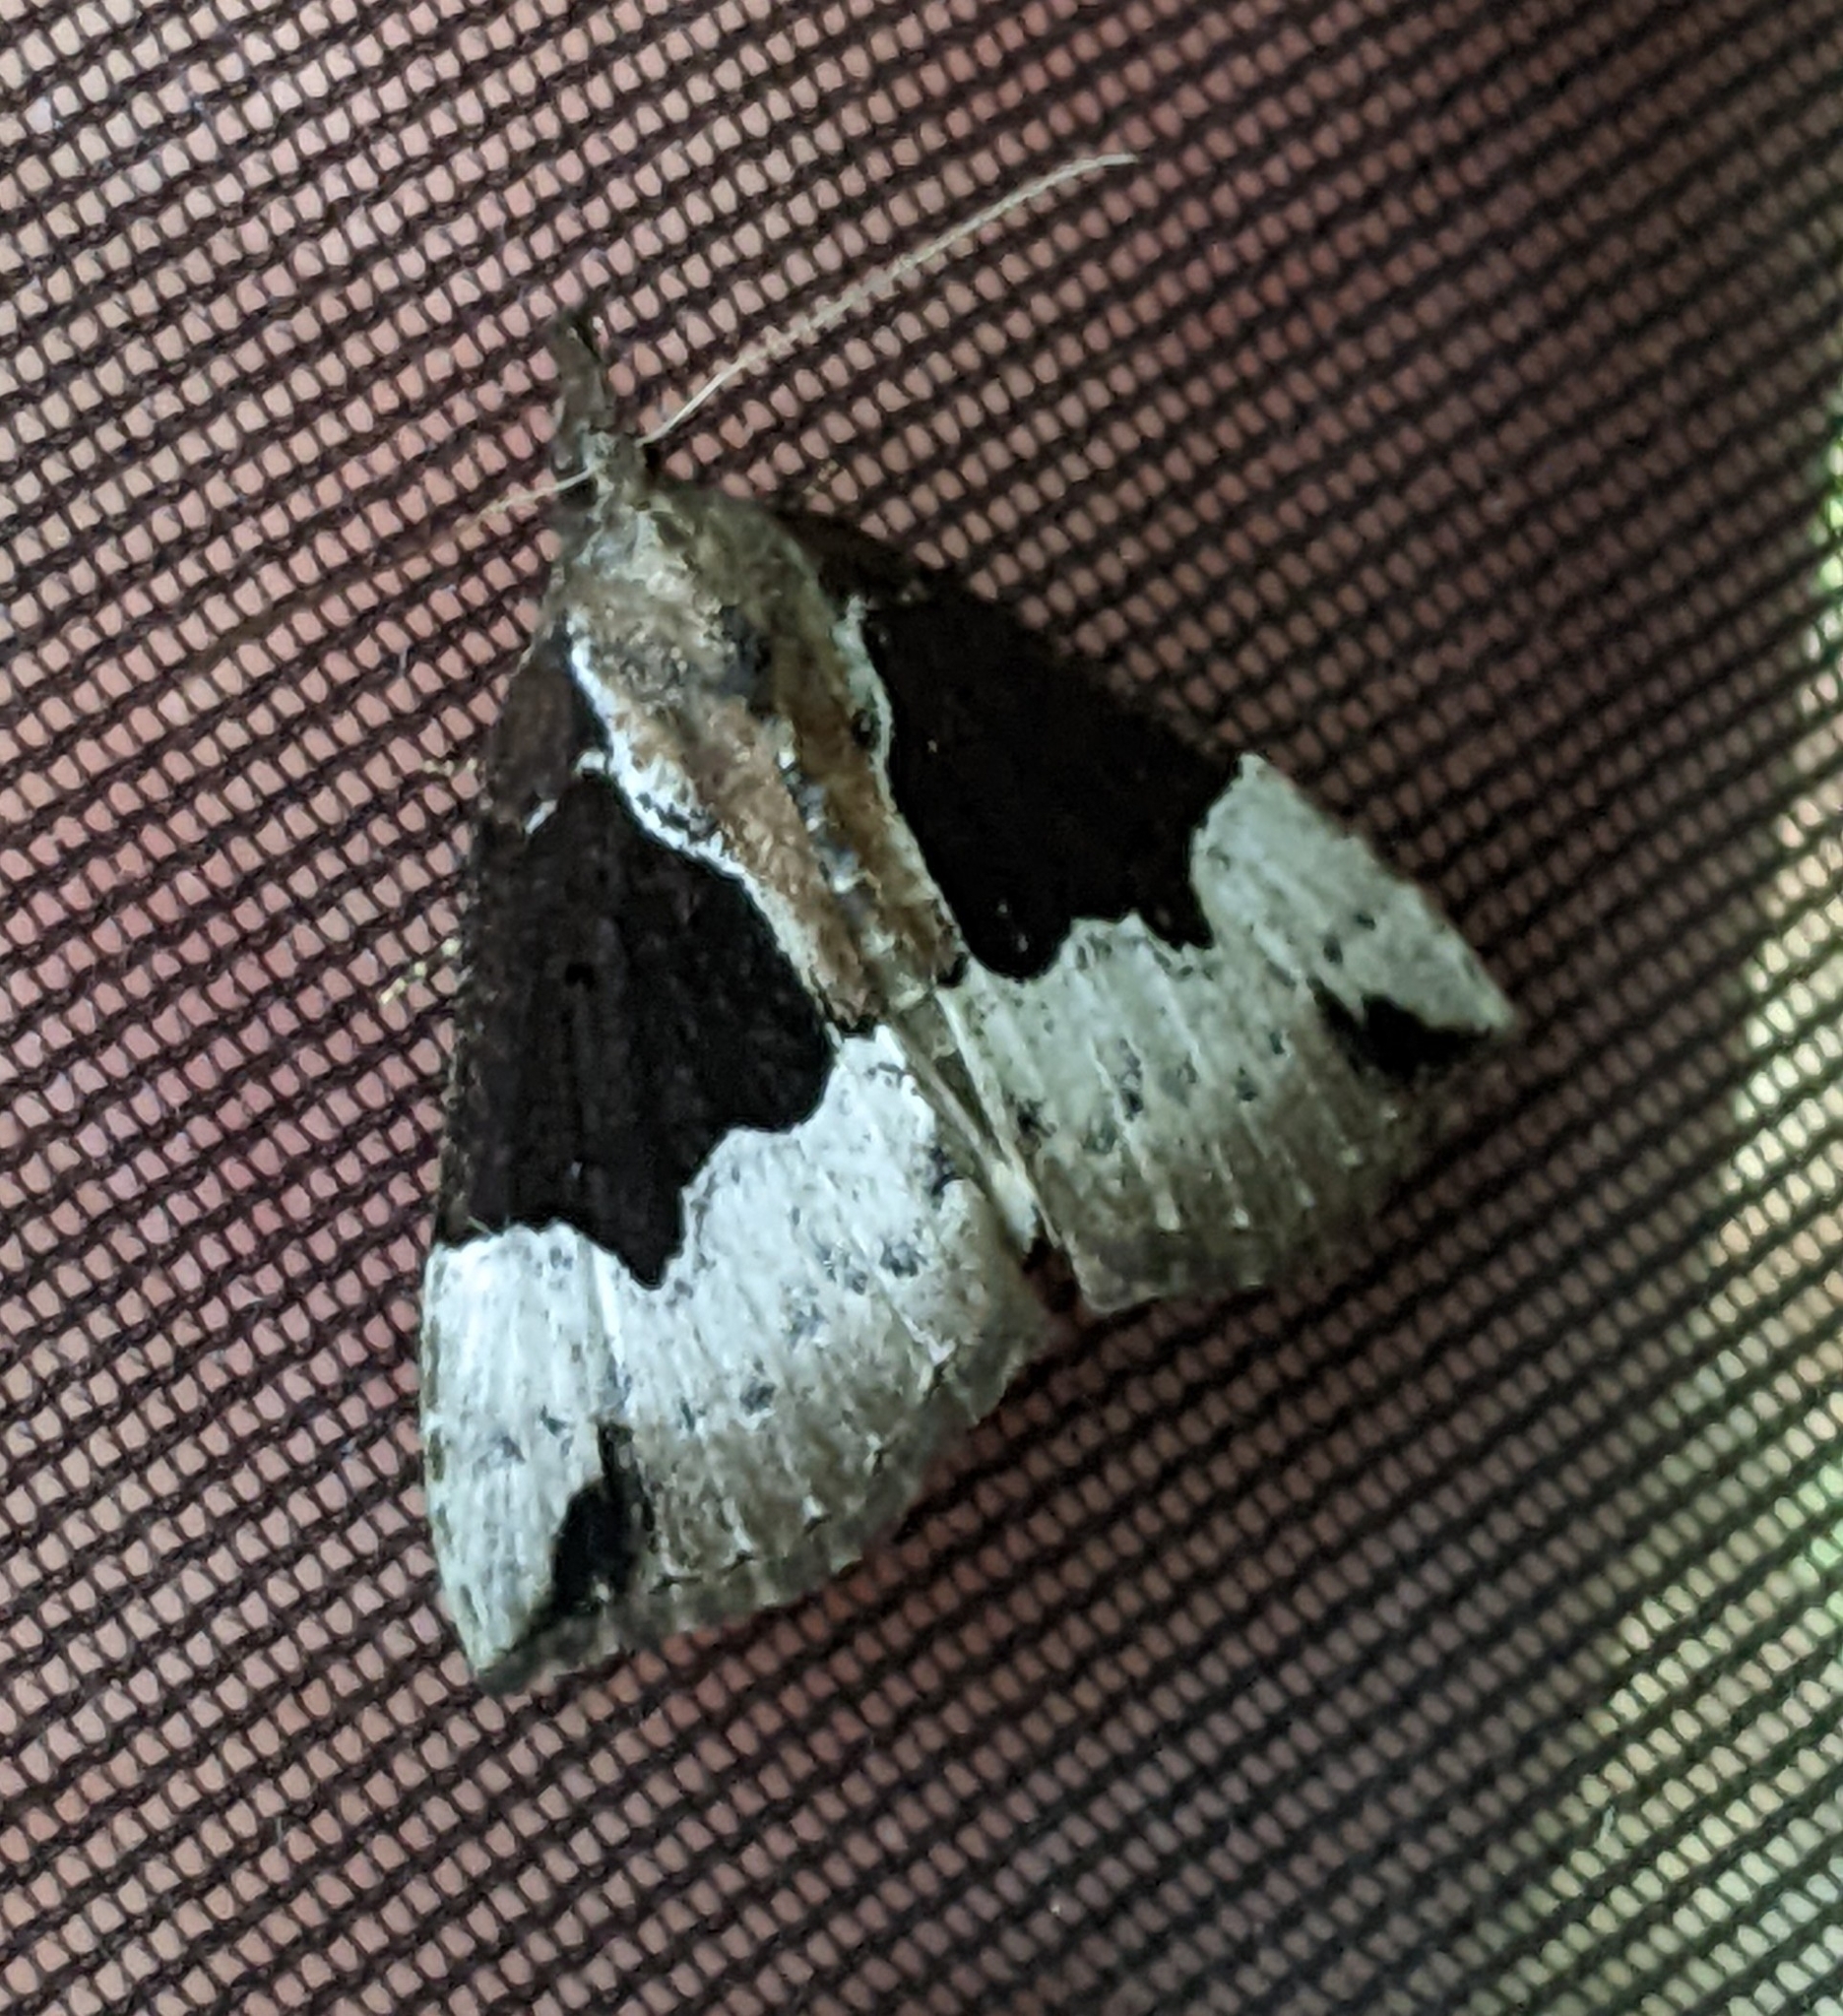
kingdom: Animalia
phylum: Arthropoda
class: Insecta
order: Lepidoptera
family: Erebidae
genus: Hypena
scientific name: Hypena bijugalis
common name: Dimorphic bomolocha moth
